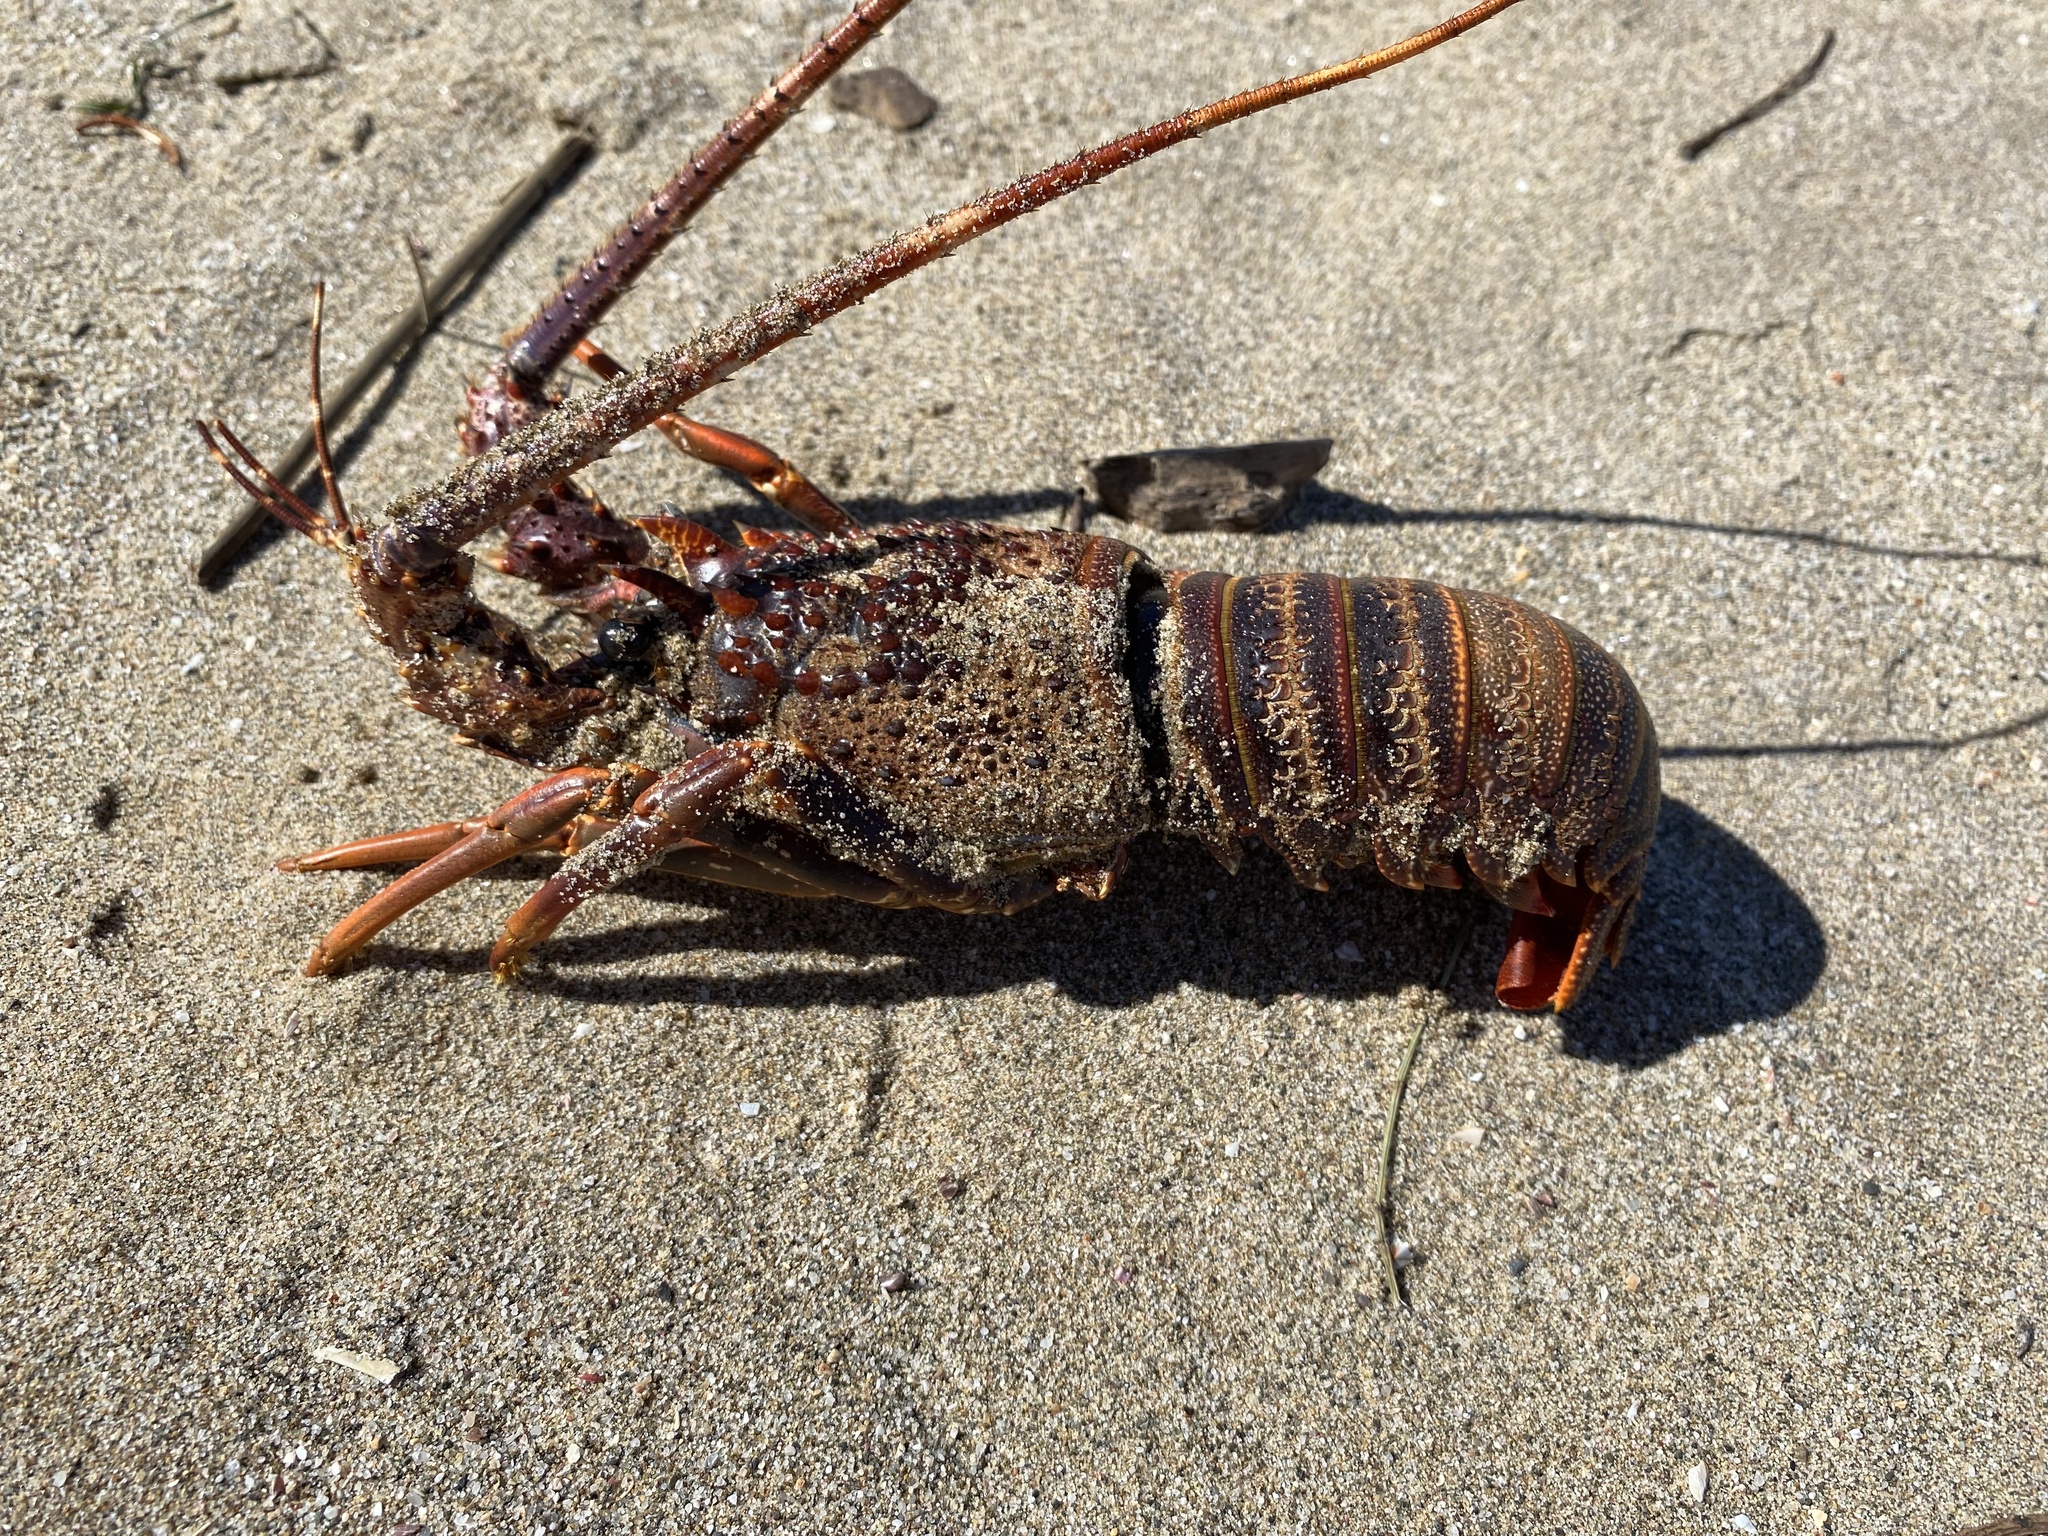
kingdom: Animalia
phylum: Arthropoda
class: Malacostraca
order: Decapoda
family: Palinuridae
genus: Panulirus
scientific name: Panulirus homarus
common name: Scalloped spiny lobster
